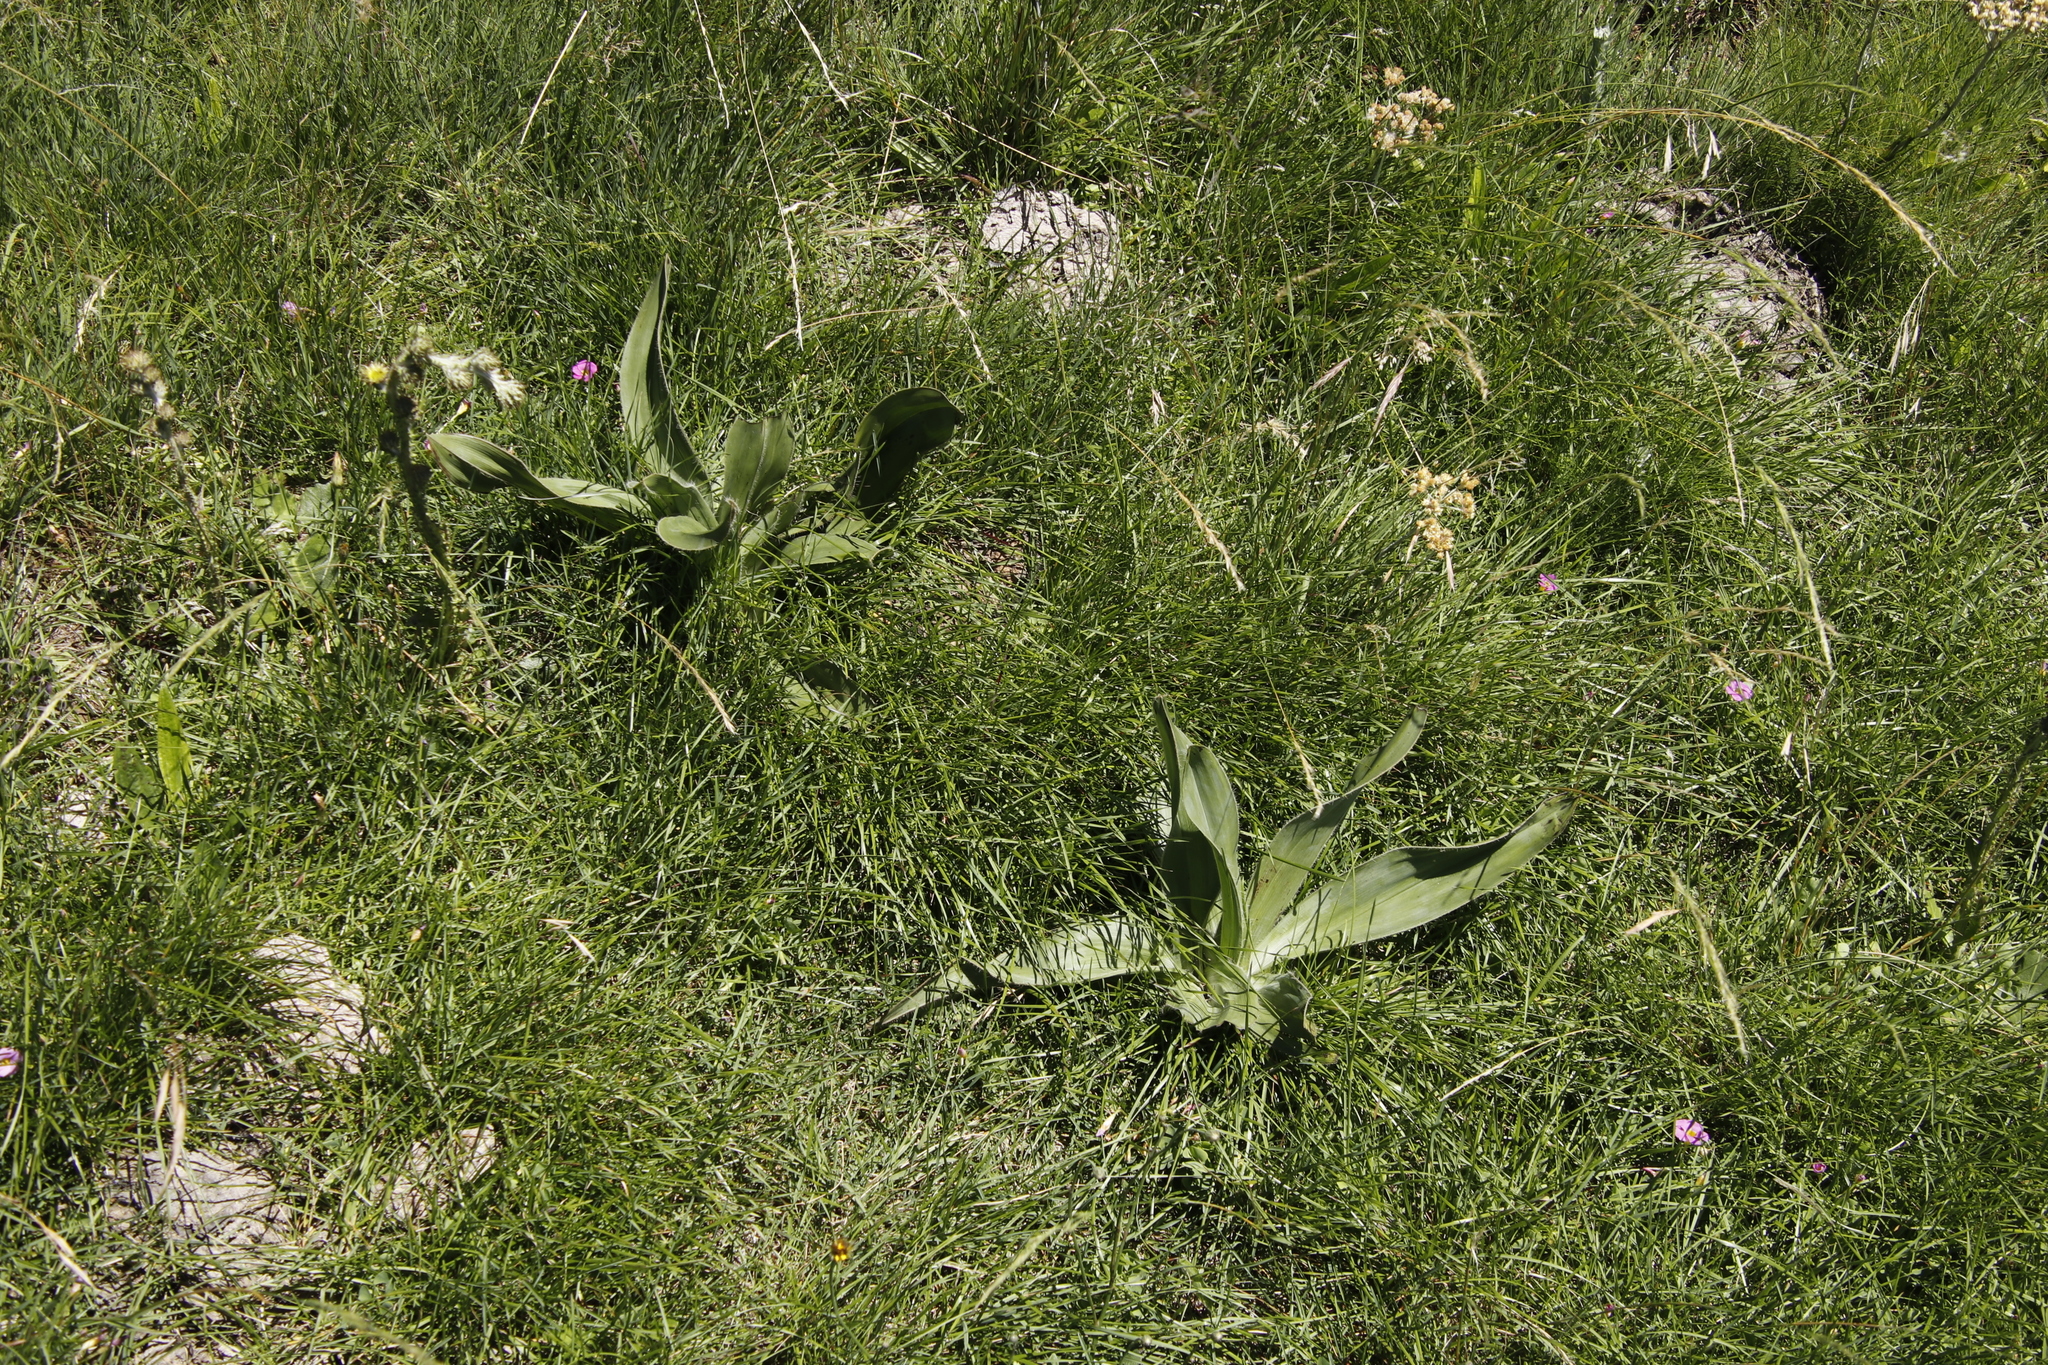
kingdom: Plantae
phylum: Tracheophyta
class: Liliopsida
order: Asparagales
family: Hypoxidaceae
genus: Hypoxis
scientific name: Hypoxis costata
